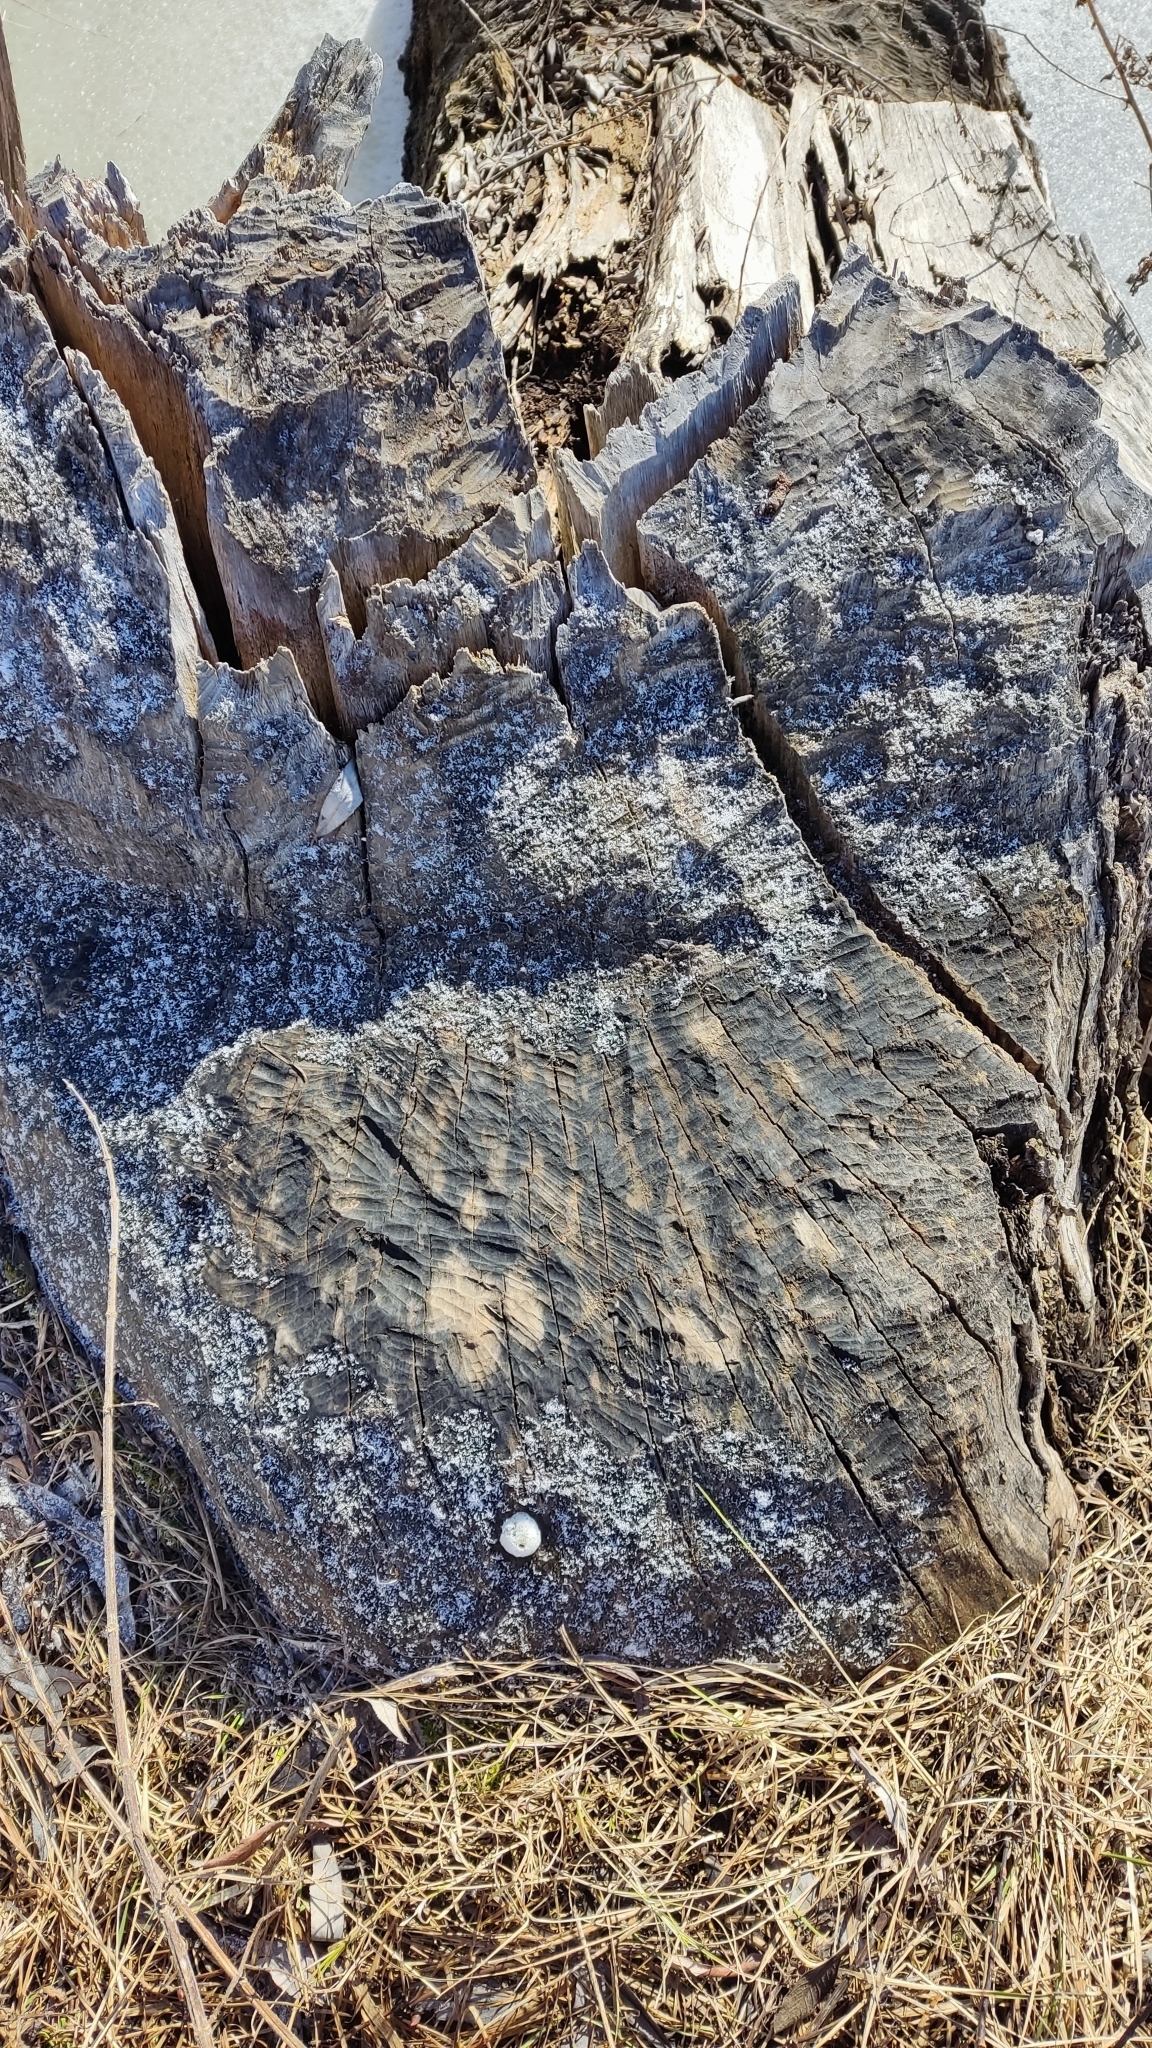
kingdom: Animalia
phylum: Chordata
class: Mammalia
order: Rodentia
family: Castoridae
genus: Castor
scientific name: Castor fiber
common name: Eurasian beaver
